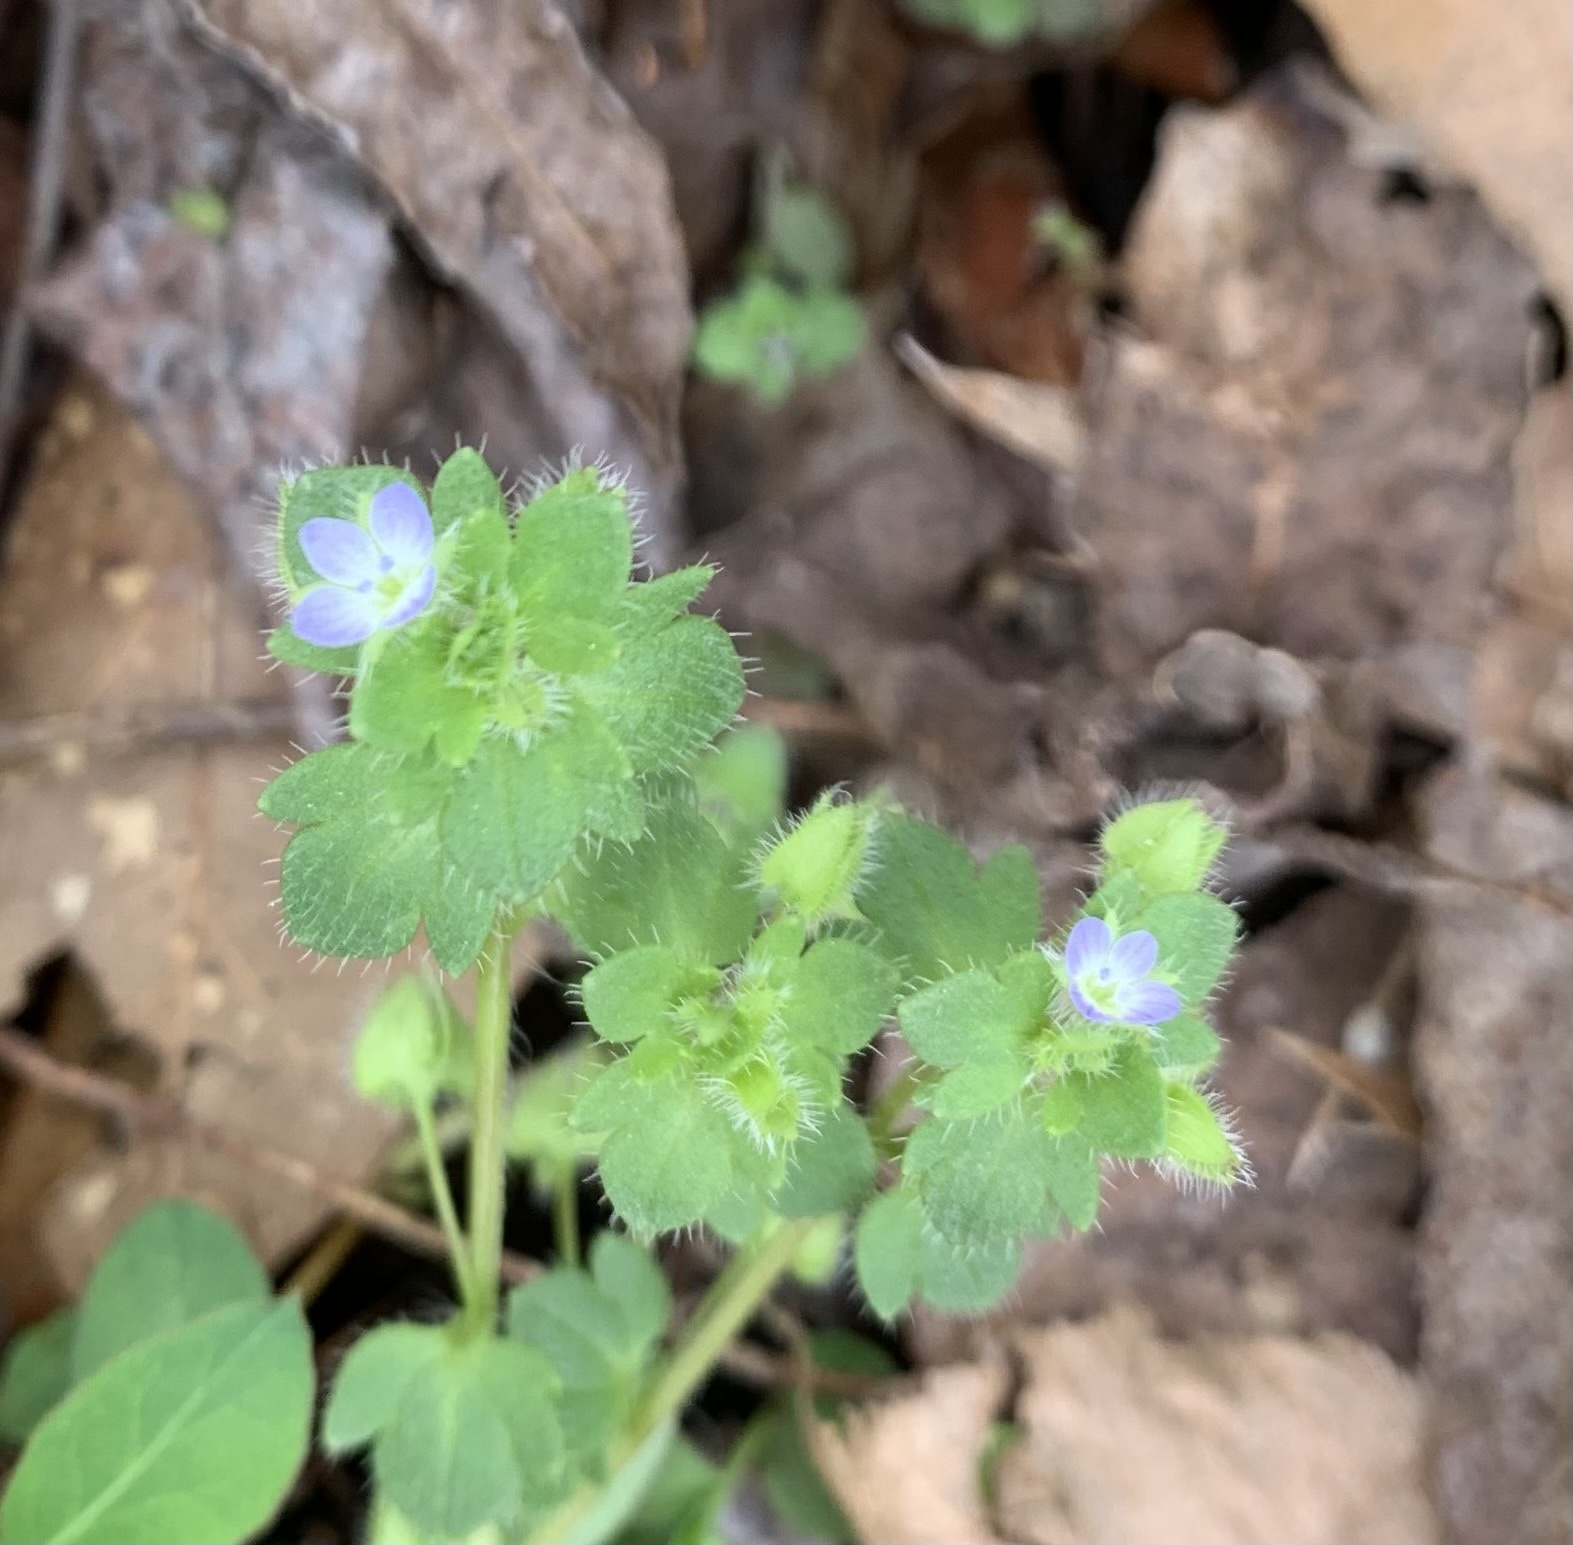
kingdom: Plantae
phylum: Tracheophyta
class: Magnoliopsida
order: Lamiales
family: Plantaginaceae
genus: Veronica
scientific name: Veronica hederifolia
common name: Ivy-leaved speedwell
